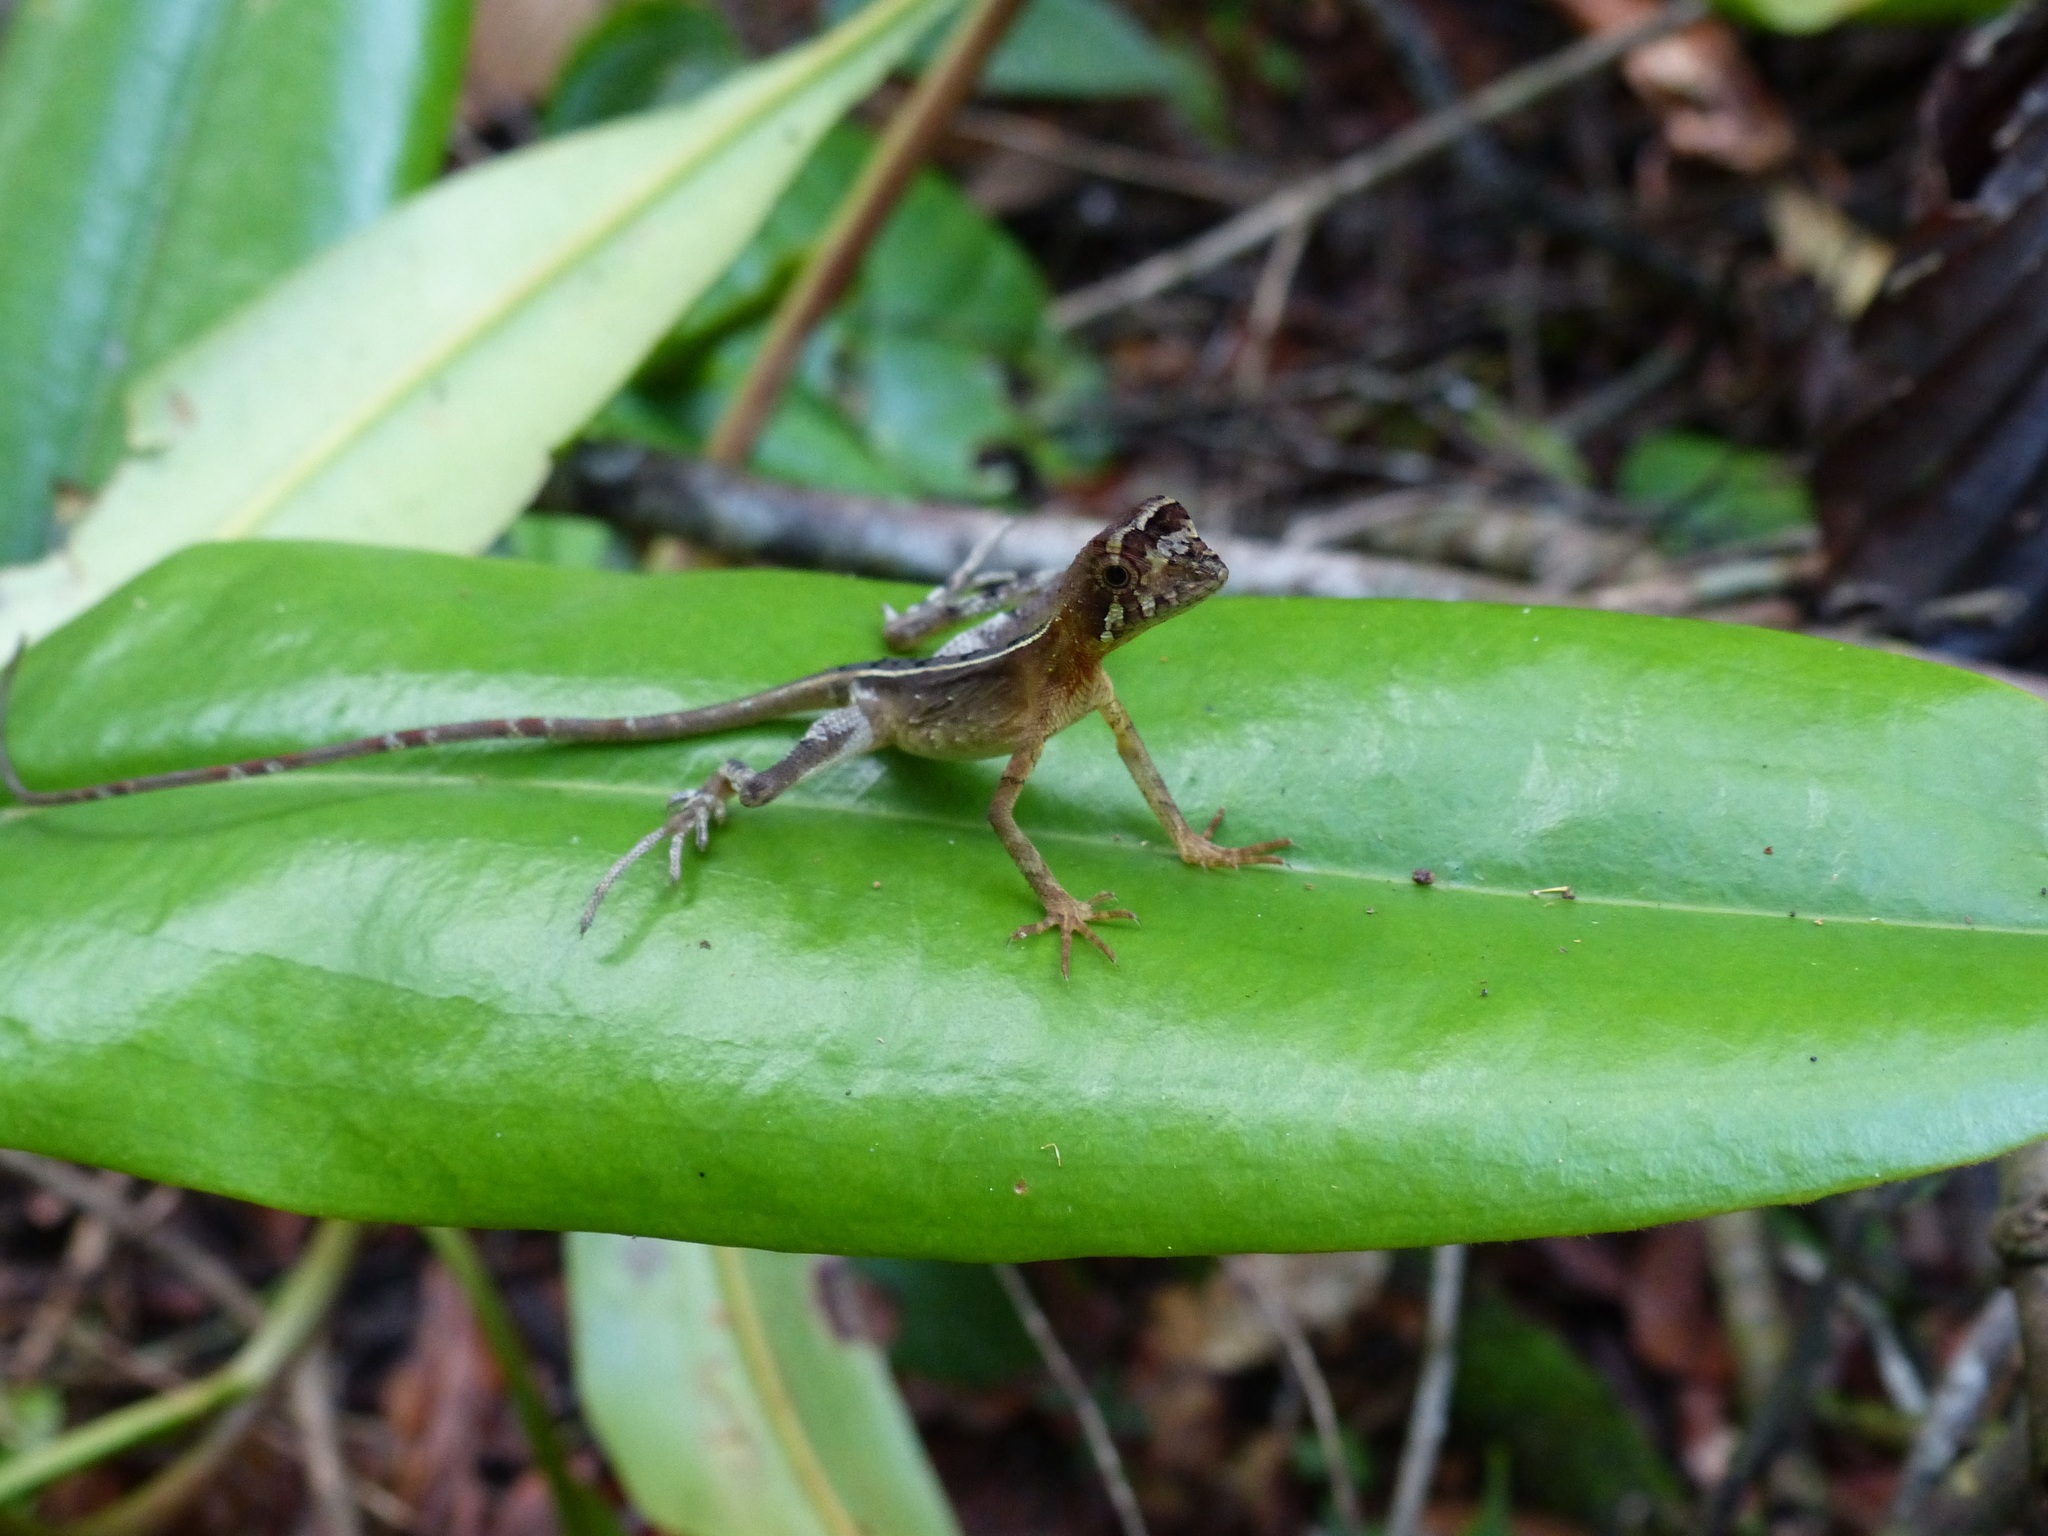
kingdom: Animalia
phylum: Chordata
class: Squamata
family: Agamidae
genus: Otocryptis
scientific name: Otocryptis wiegmanni
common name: Wiegmann's agama
